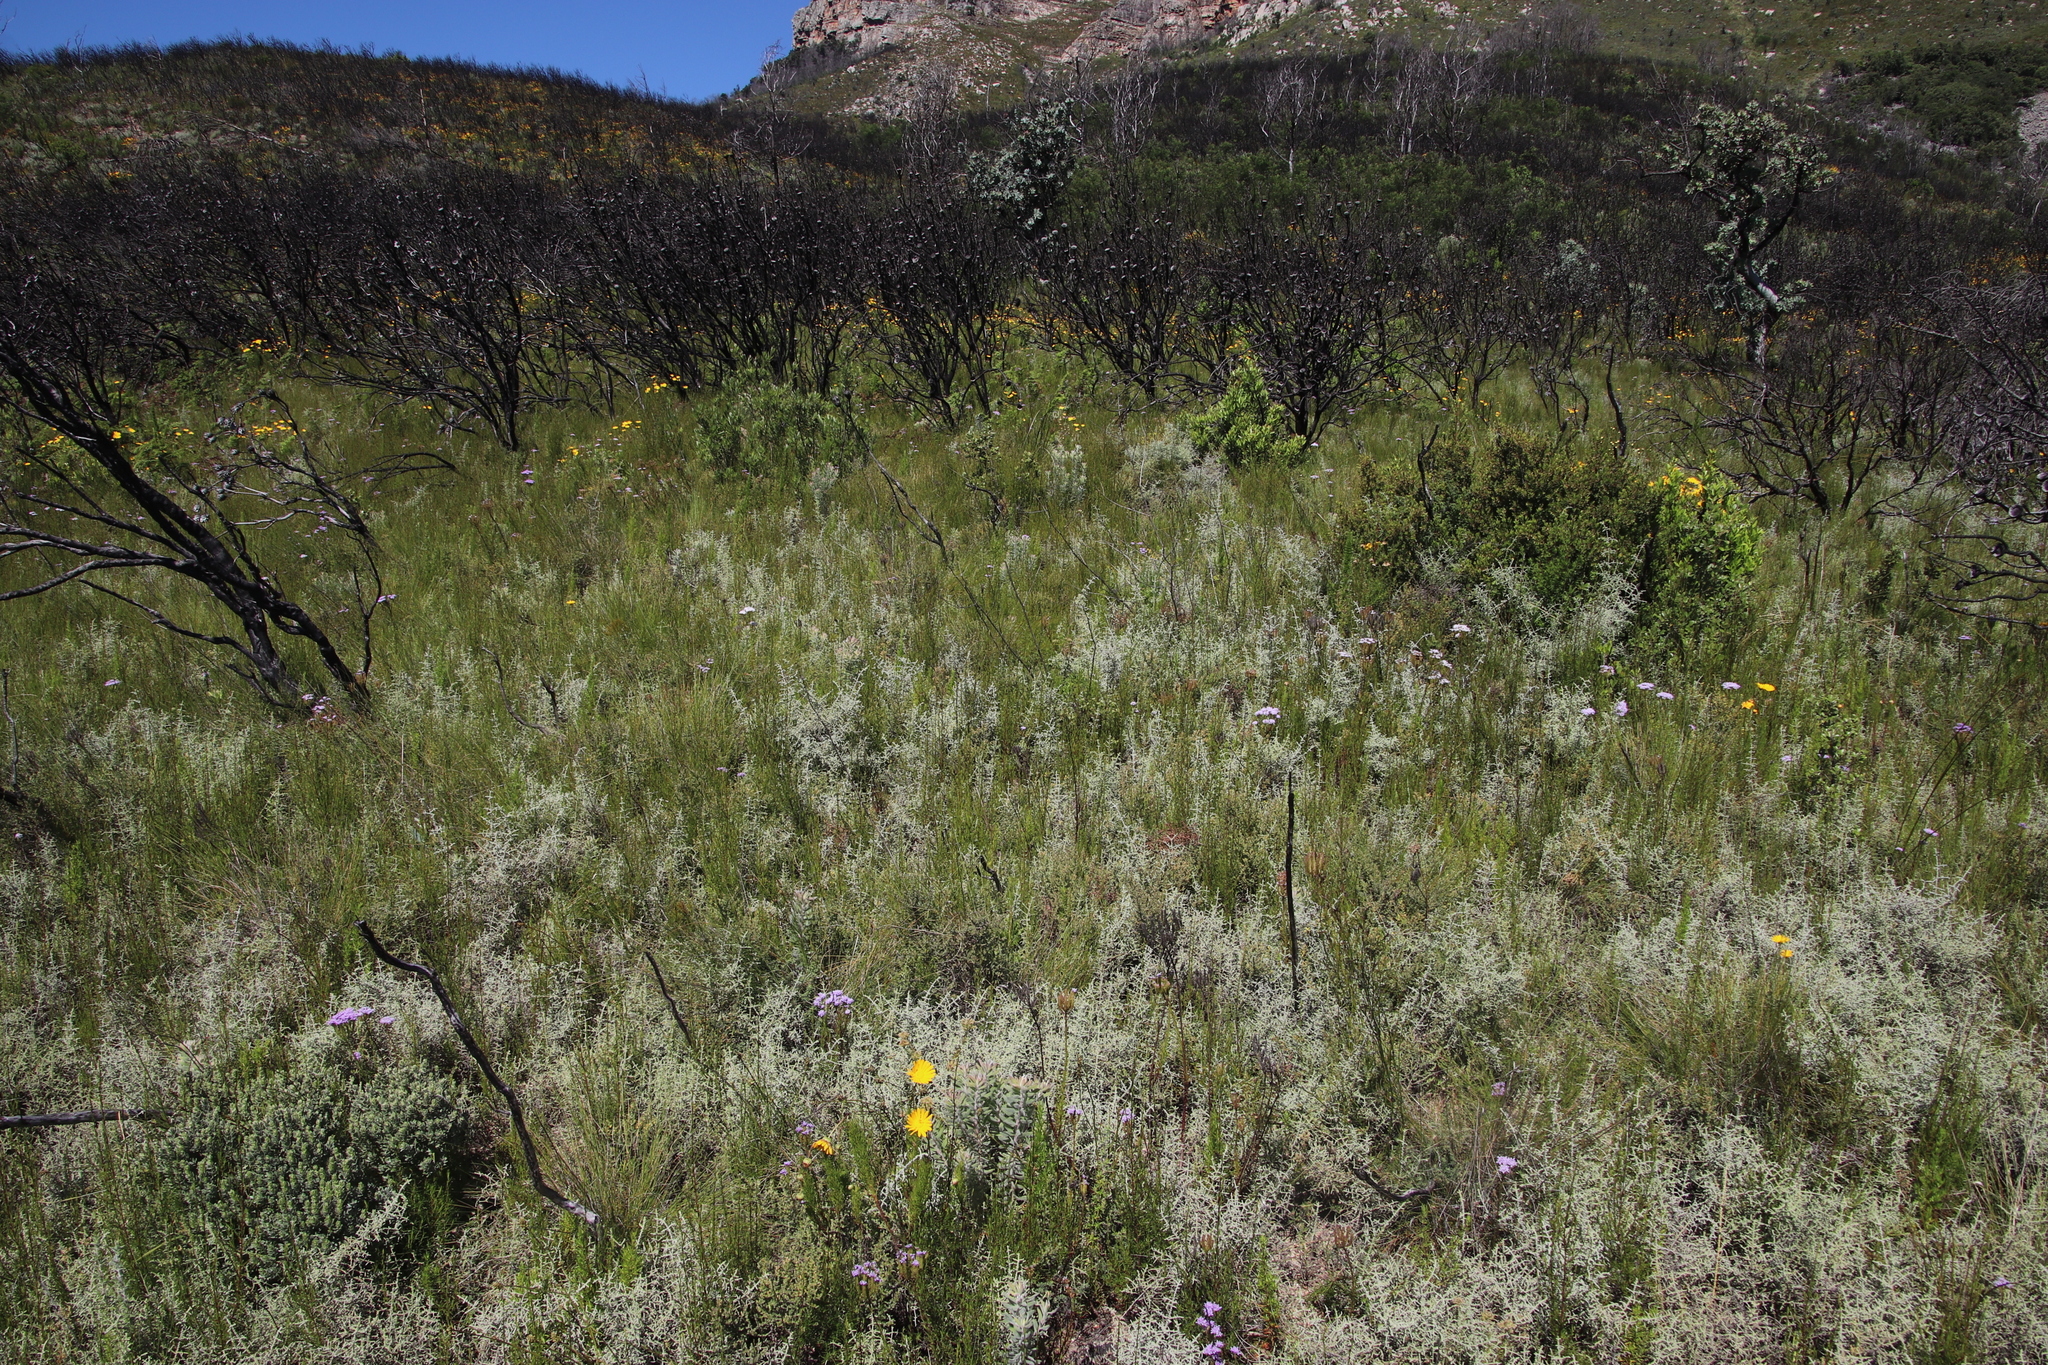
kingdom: Plantae
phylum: Tracheophyta
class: Magnoliopsida
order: Rosales
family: Rosaceae
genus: Cliffortia
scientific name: Cliffortia erectisepala
